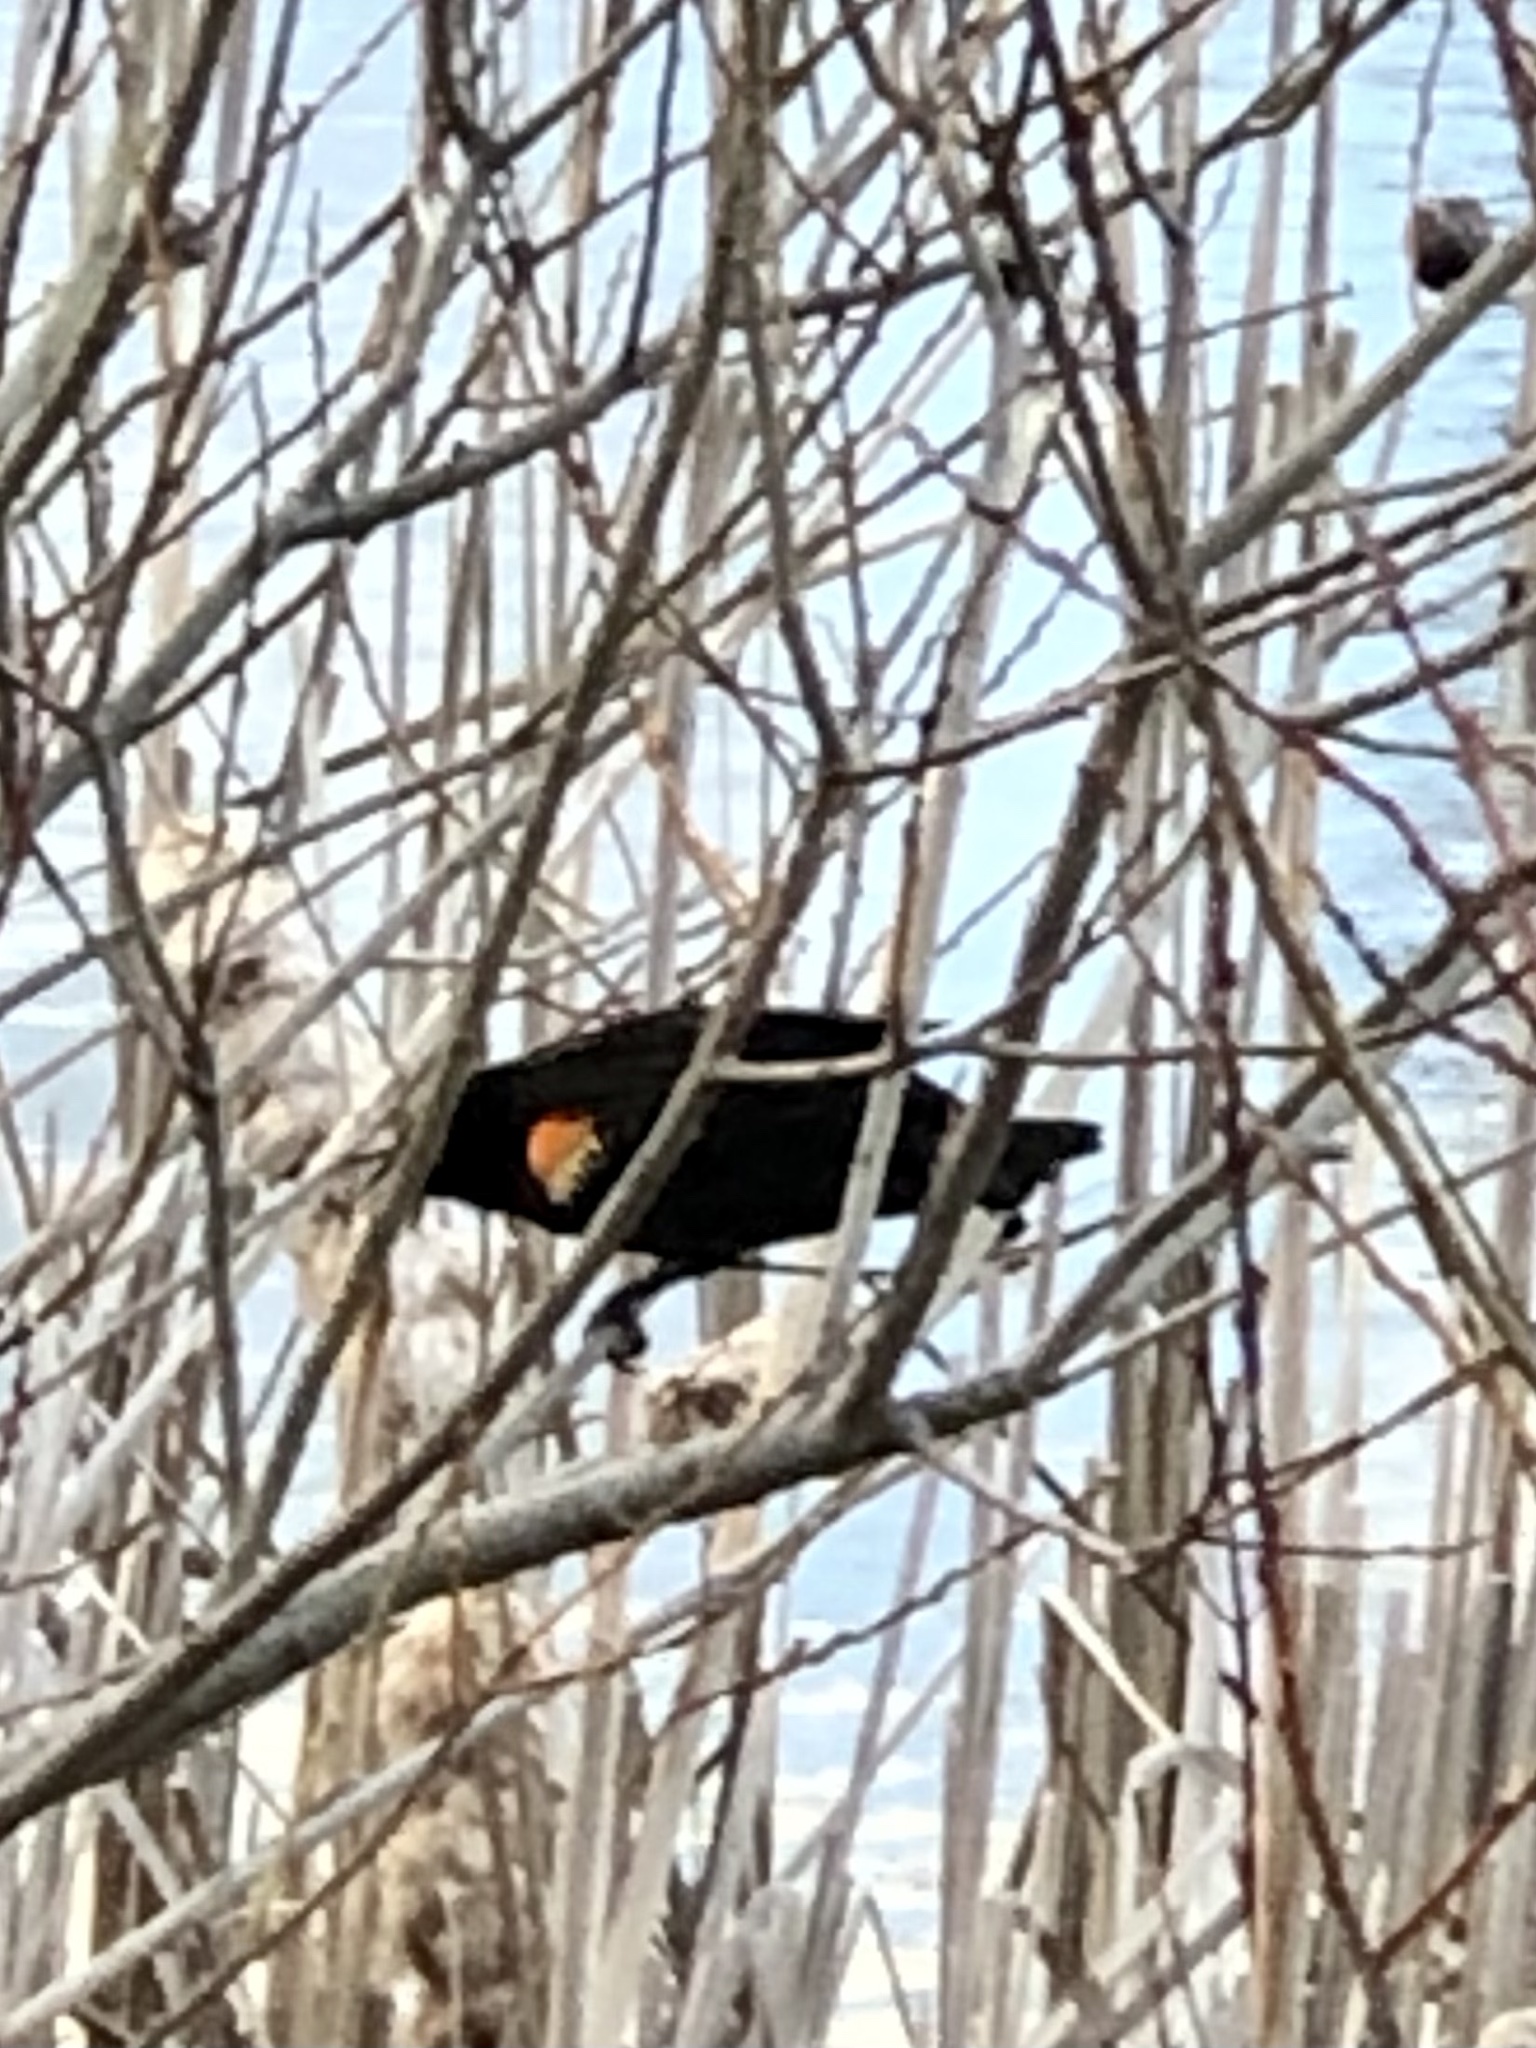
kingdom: Animalia
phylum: Chordata
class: Aves
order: Passeriformes
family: Icteridae
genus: Agelaius
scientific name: Agelaius phoeniceus
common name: Red-winged blackbird
